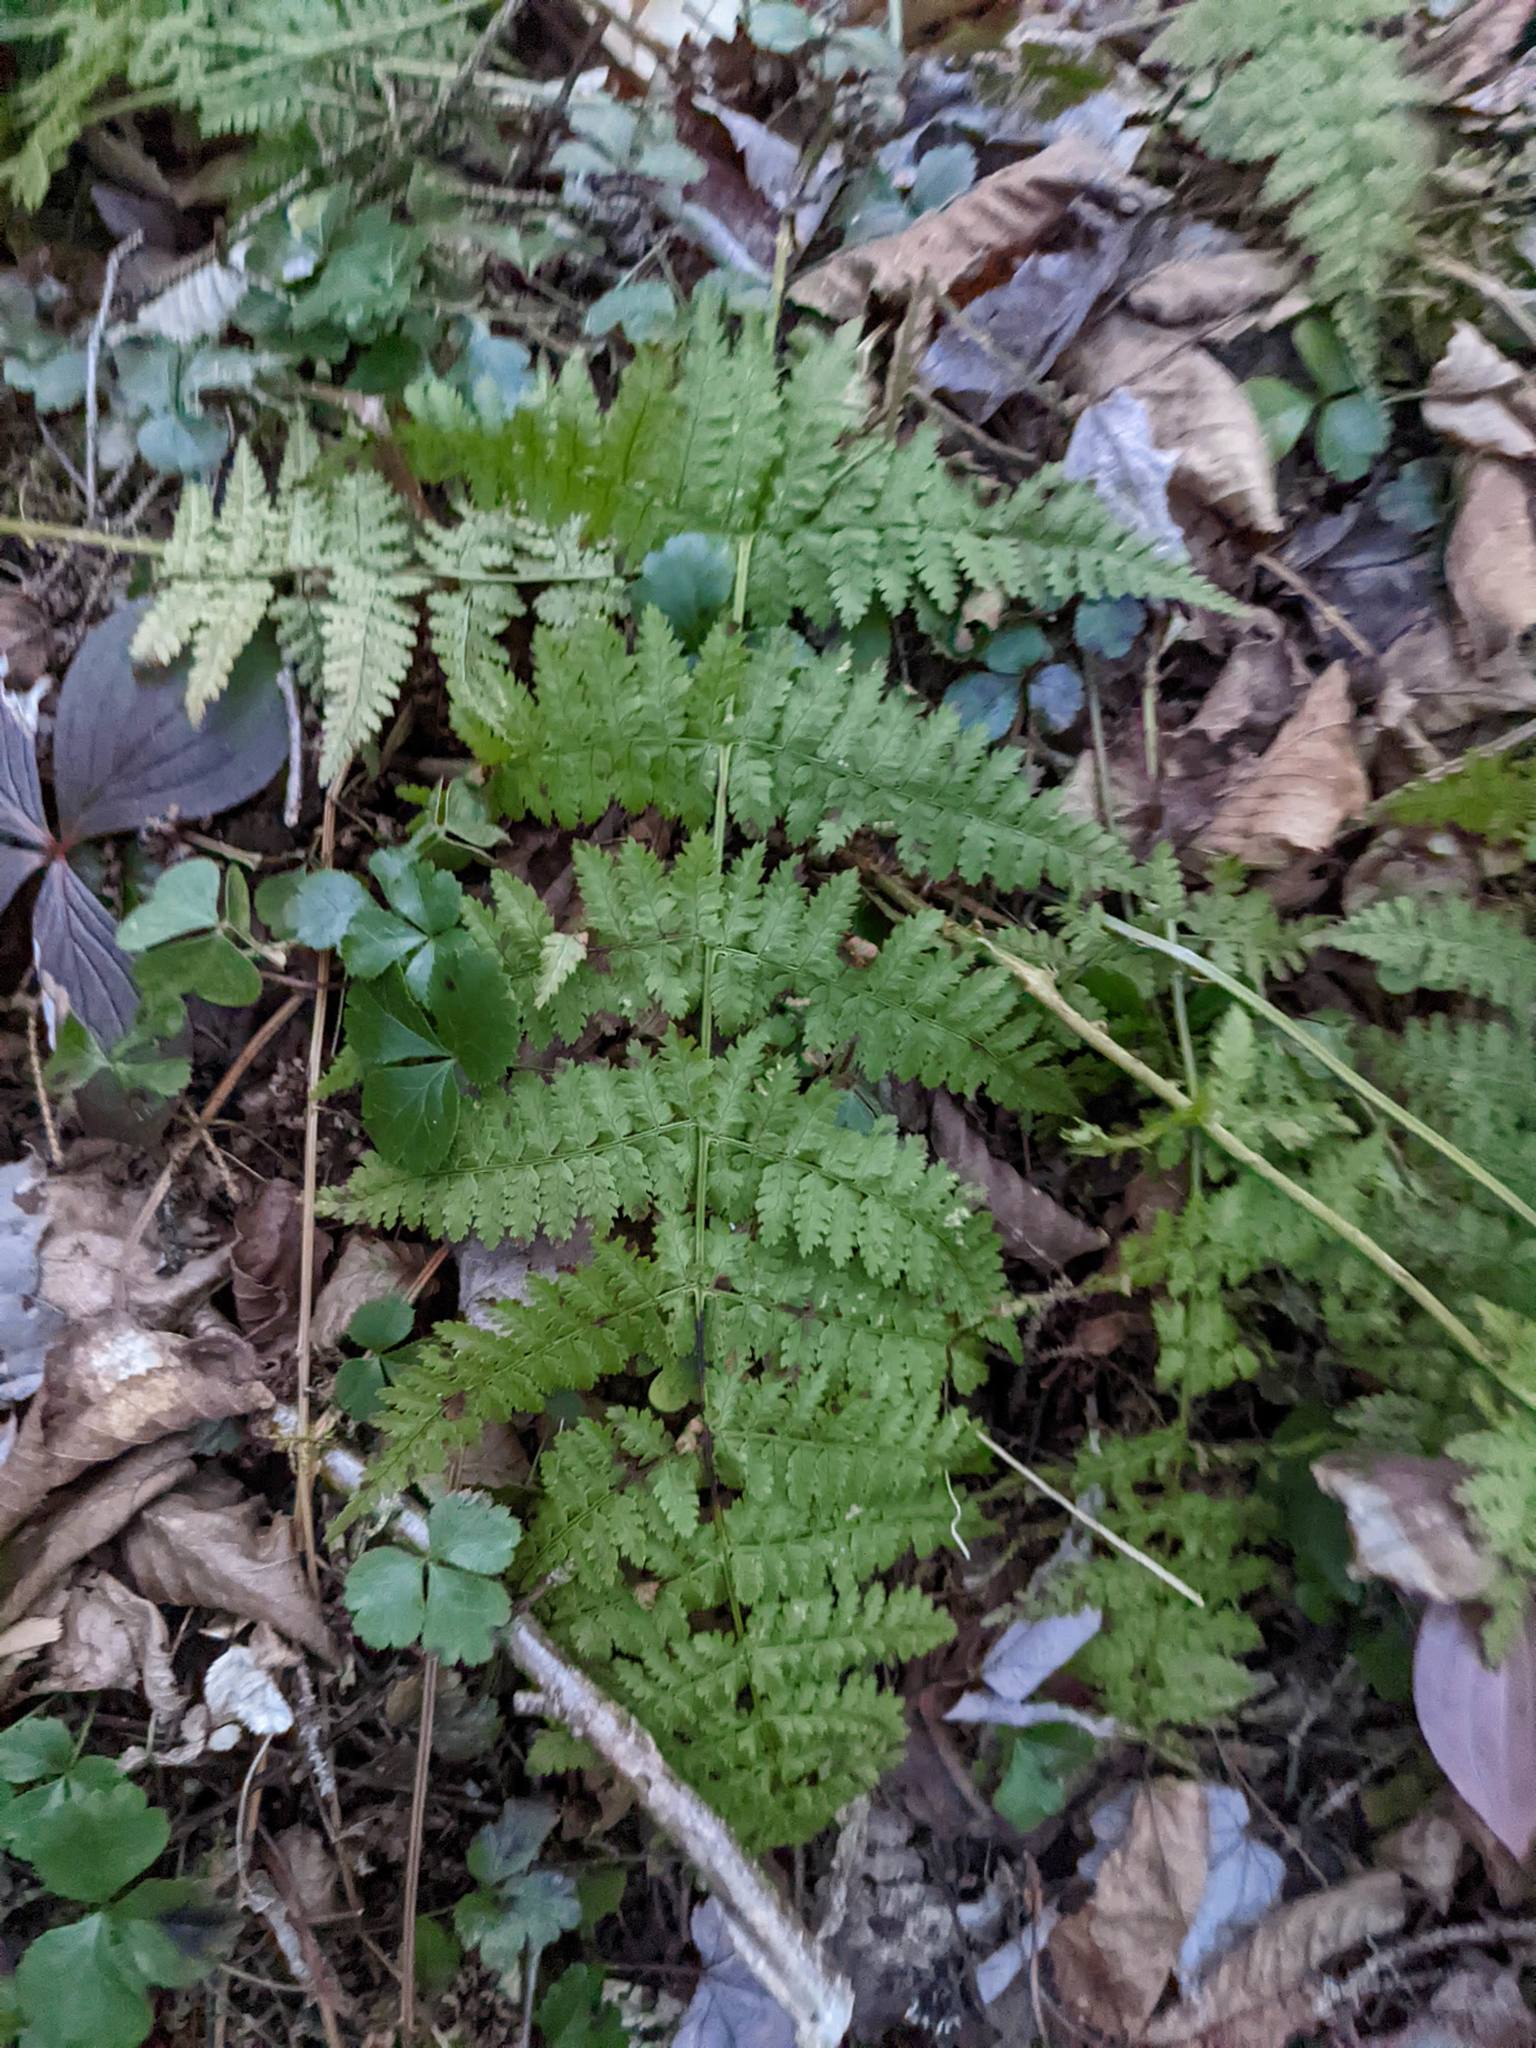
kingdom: Plantae
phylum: Tracheophyta
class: Polypodiopsida
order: Polypodiales
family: Dryopteridaceae
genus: Dryopteris
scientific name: Dryopteris intermedia
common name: Evergreen wood fern
